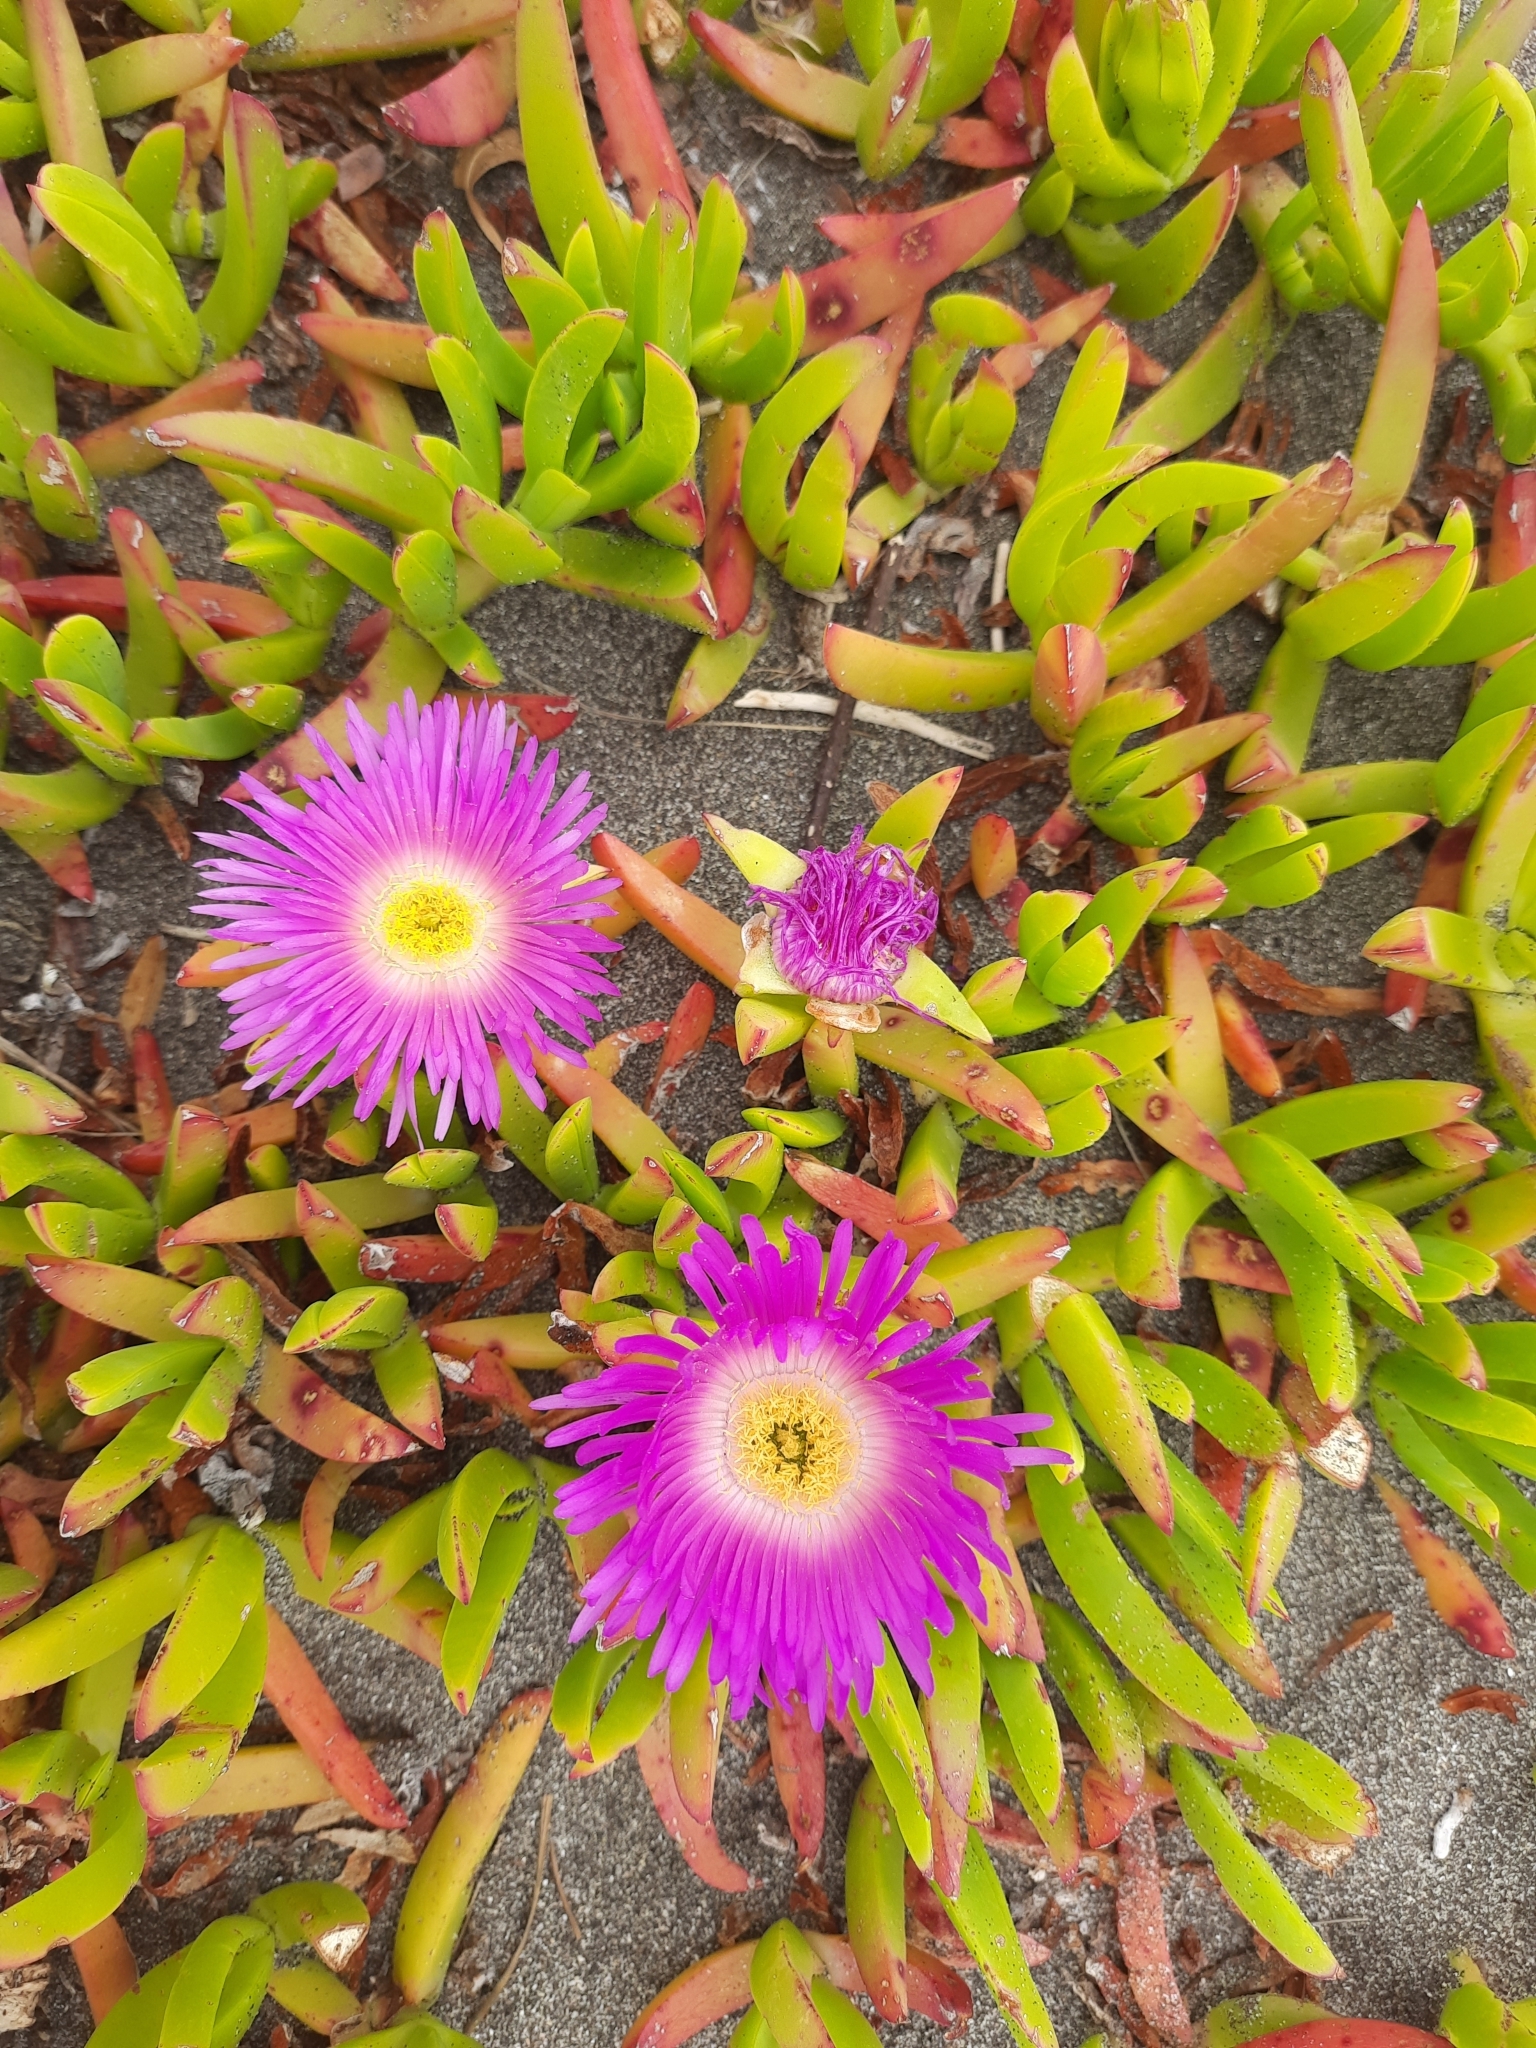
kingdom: Plantae
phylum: Tracheophyta
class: Magnoliopsida
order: Caryophyllales
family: Aizoaceae
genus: Carpobrotus
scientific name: Carpobrotus chilensis
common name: Sea fig
